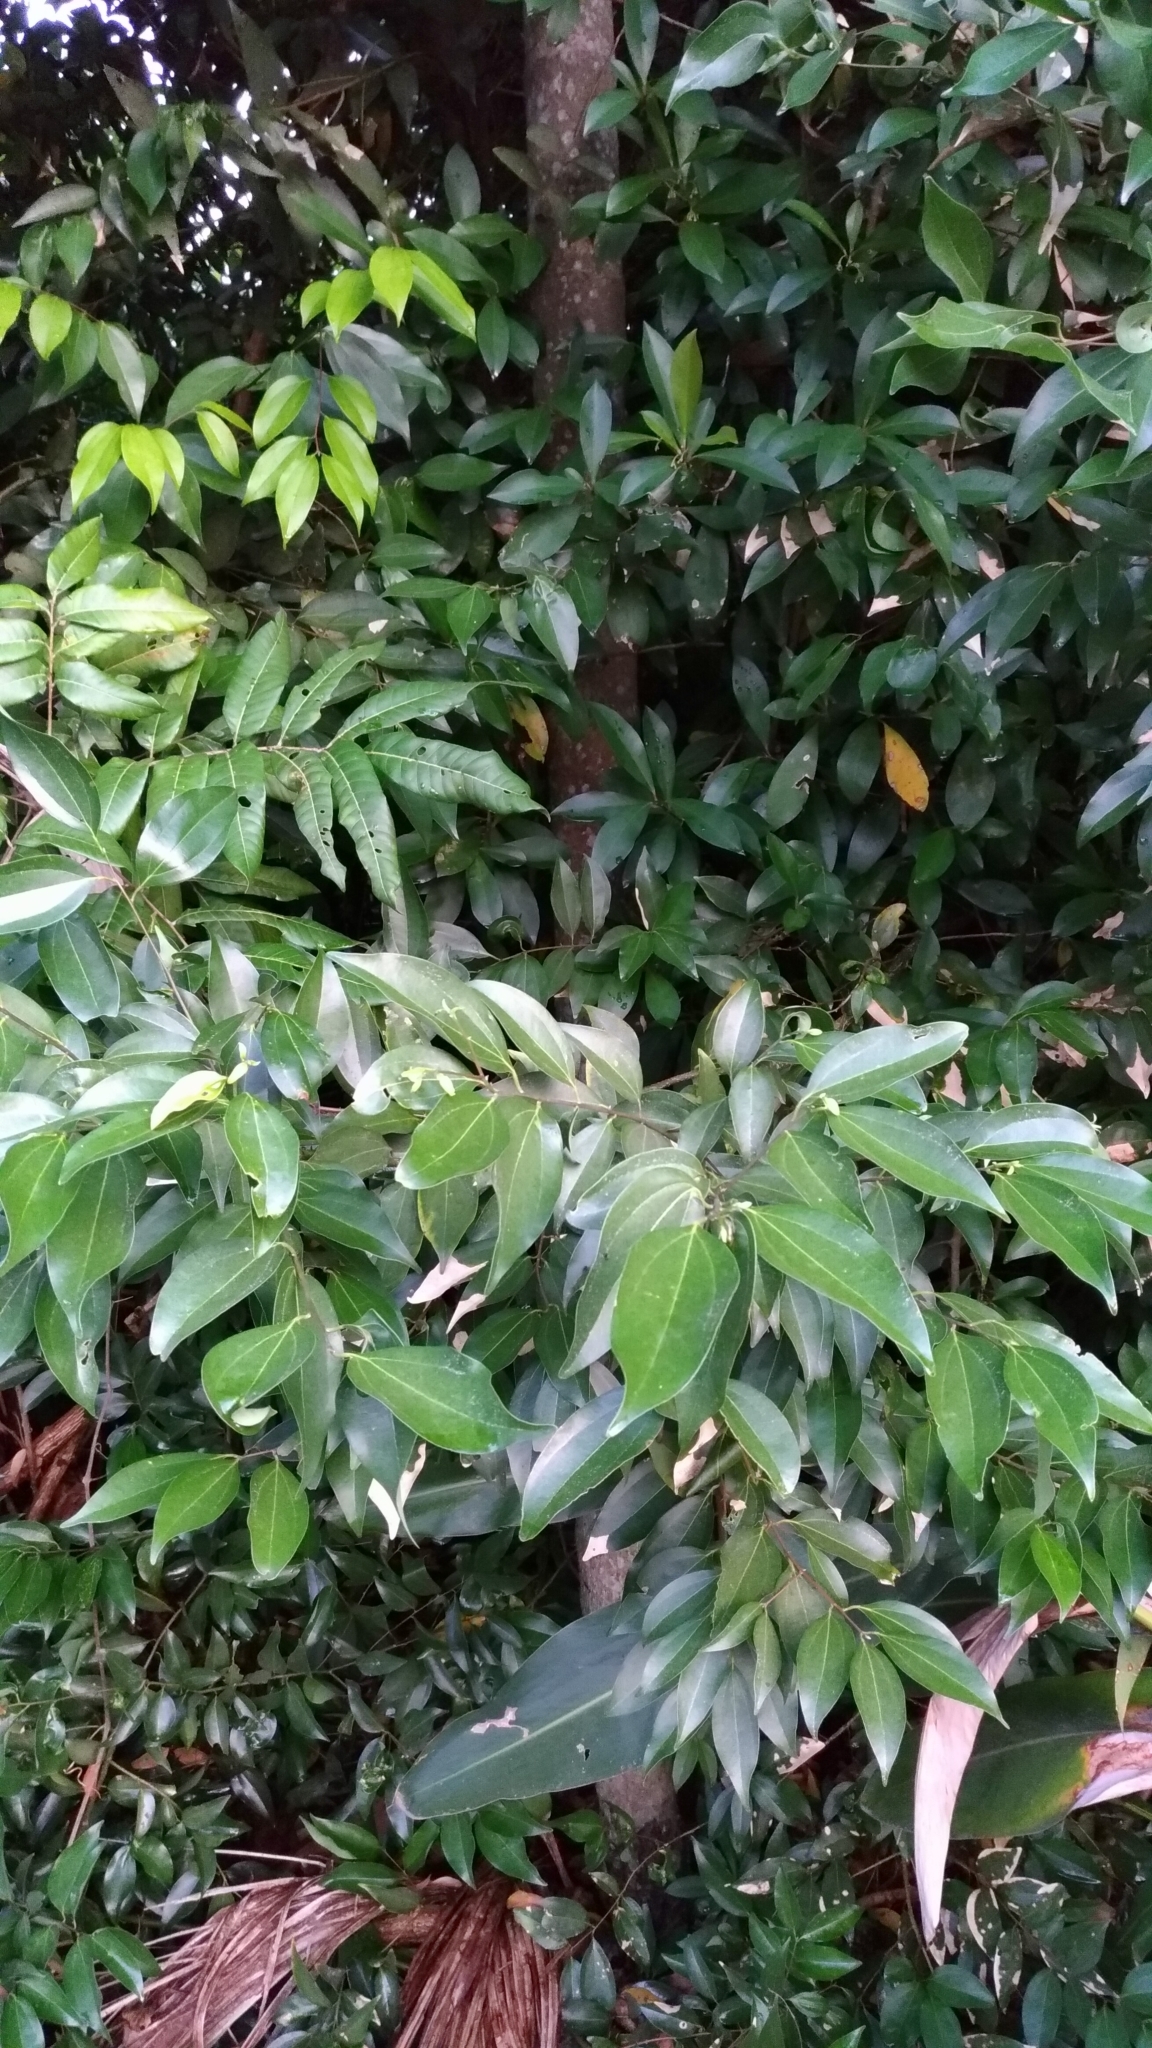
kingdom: Plantae
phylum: Tracheophyta
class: Magnoliopsida
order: Laurales
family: Lauraceae
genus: Cinnamomum
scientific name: Cinnamomum burmanni
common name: Padang cassia
